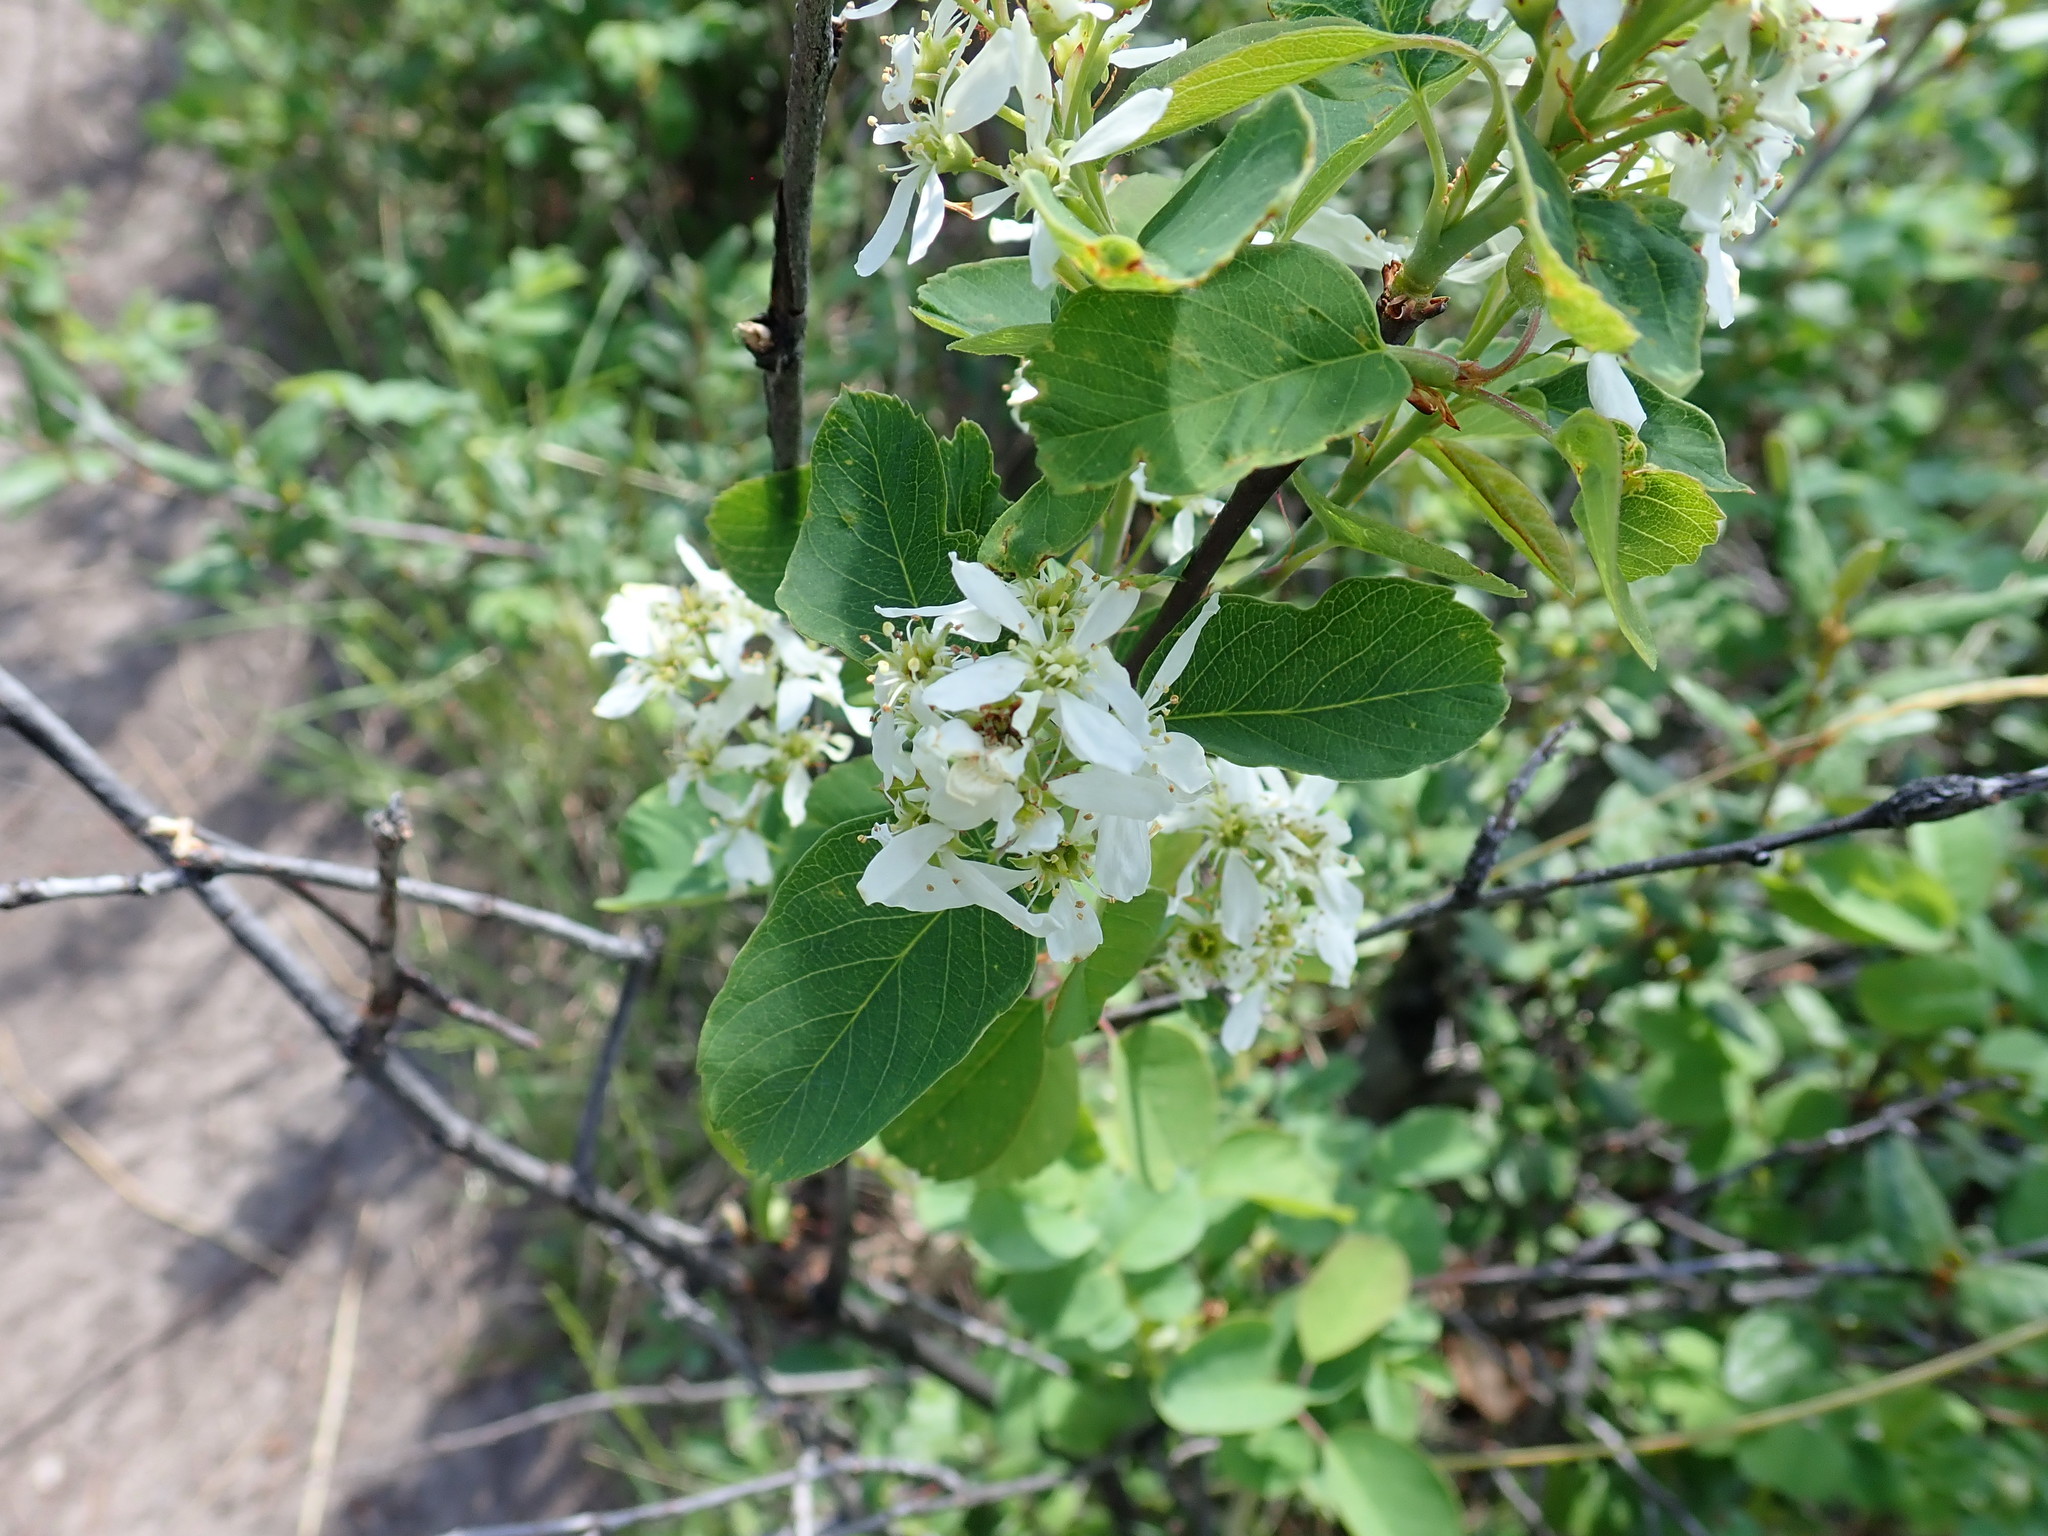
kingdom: Plantae
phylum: Tracheophyta
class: Magnoliopsida
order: Rosales
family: Rosaceae
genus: Amelanchier
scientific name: Amelanchier alnifolia
